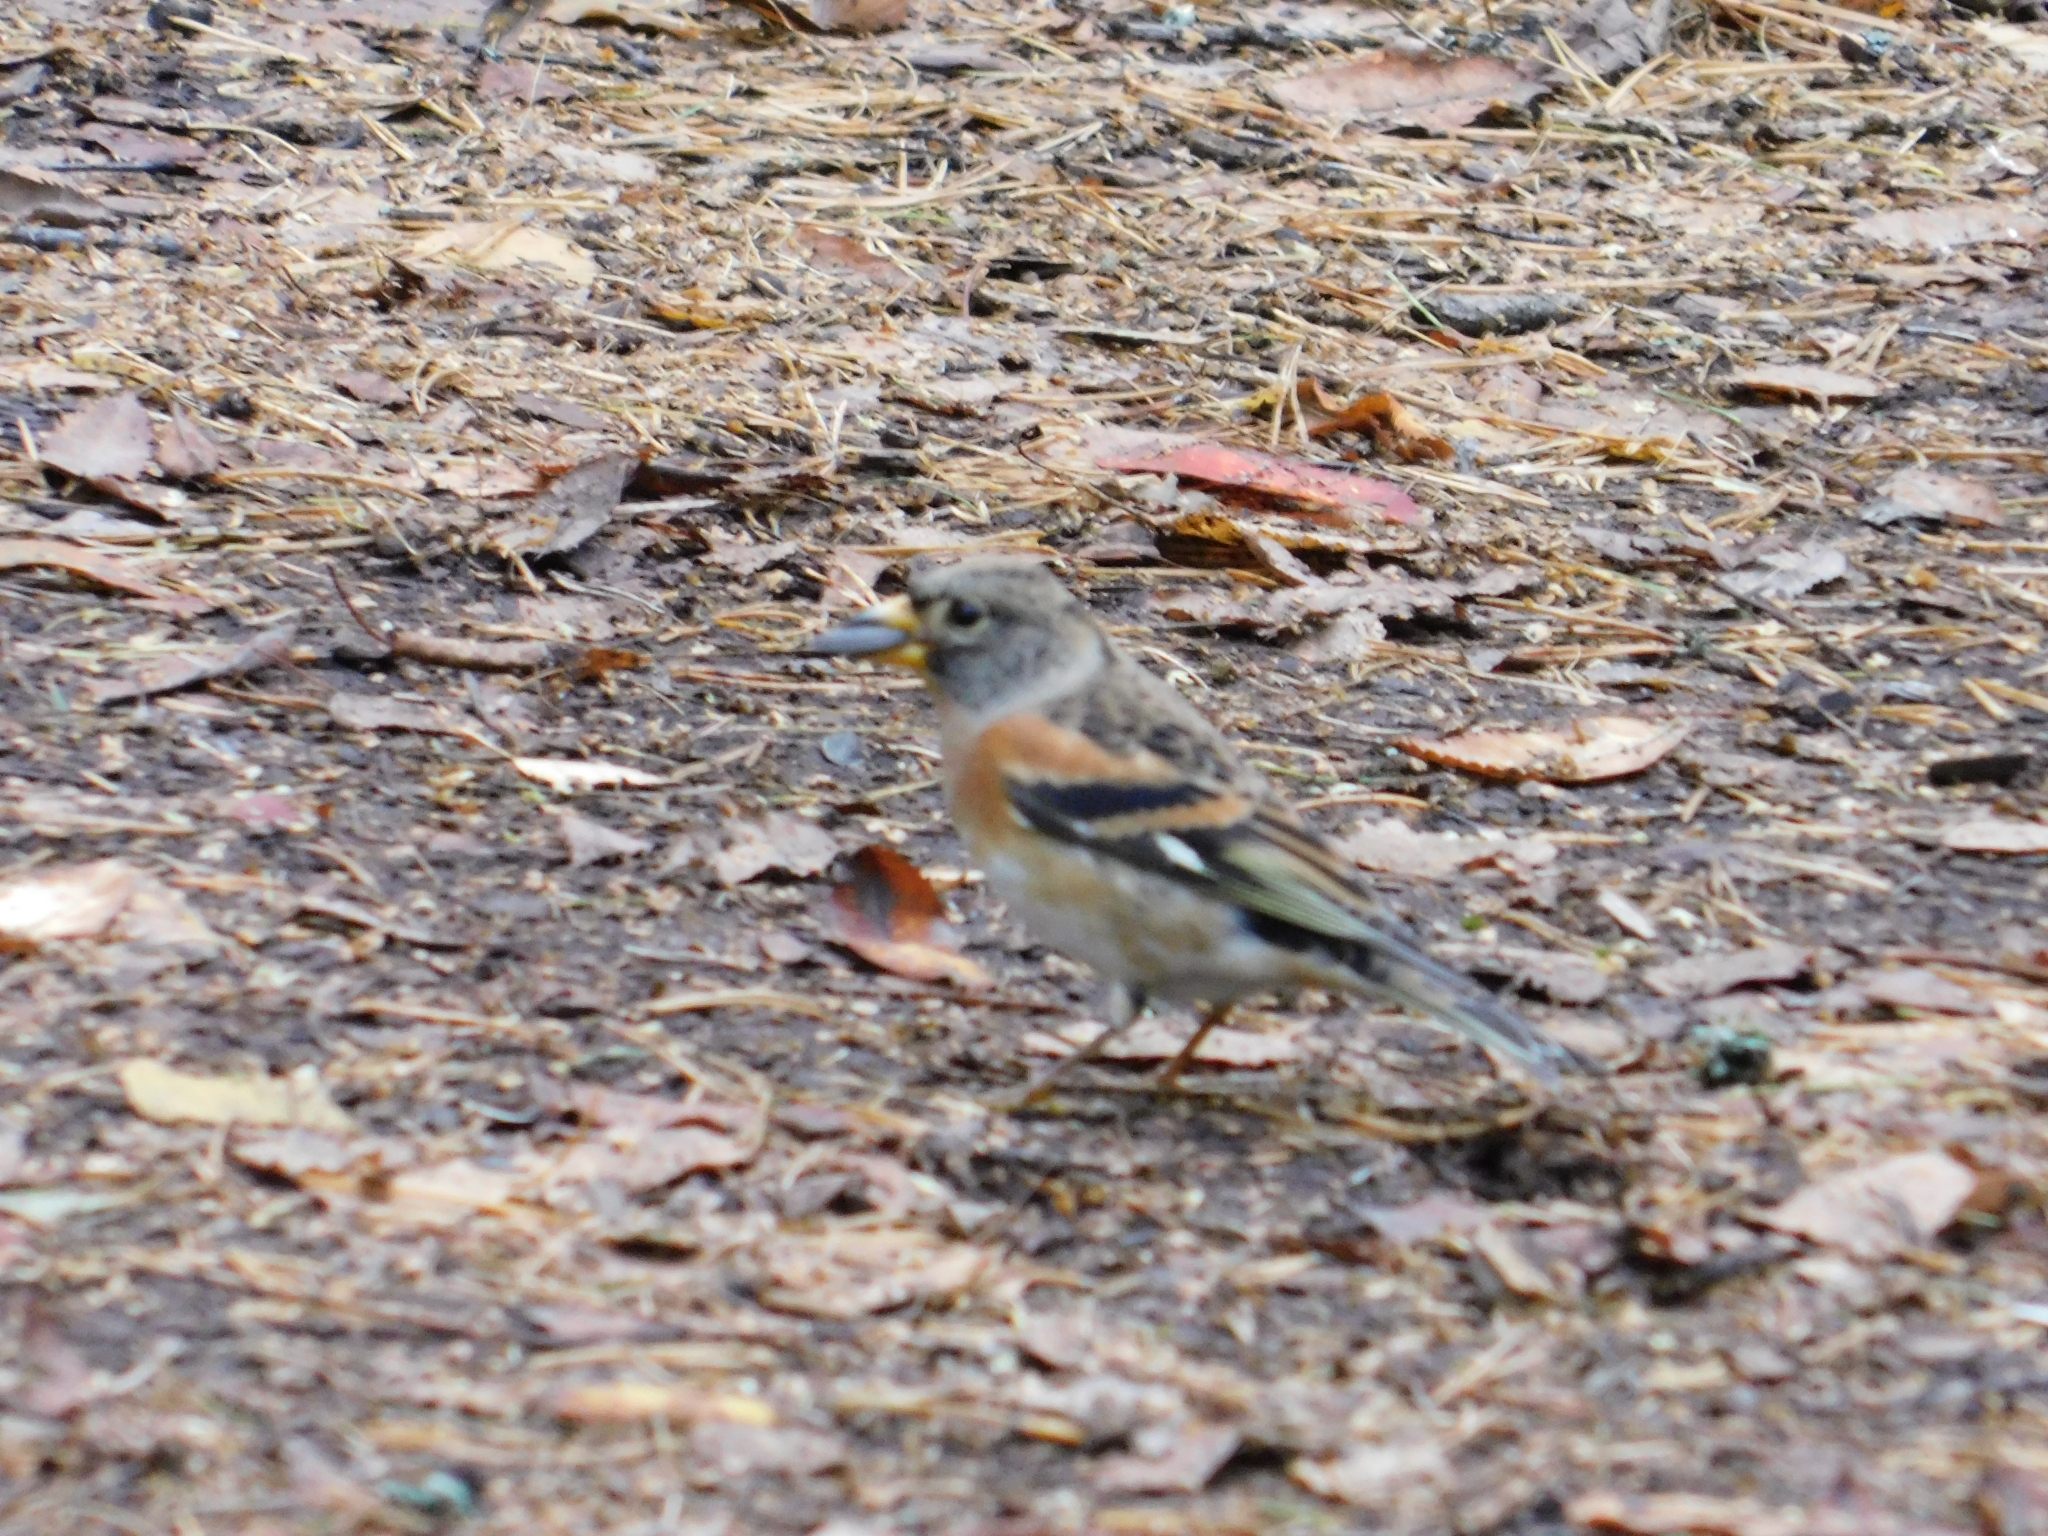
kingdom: Animalia
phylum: Chordata
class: Aves
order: Passeriformes
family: Fringillidae
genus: Fringilla
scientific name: Fringilla montifringilla
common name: Brambling
